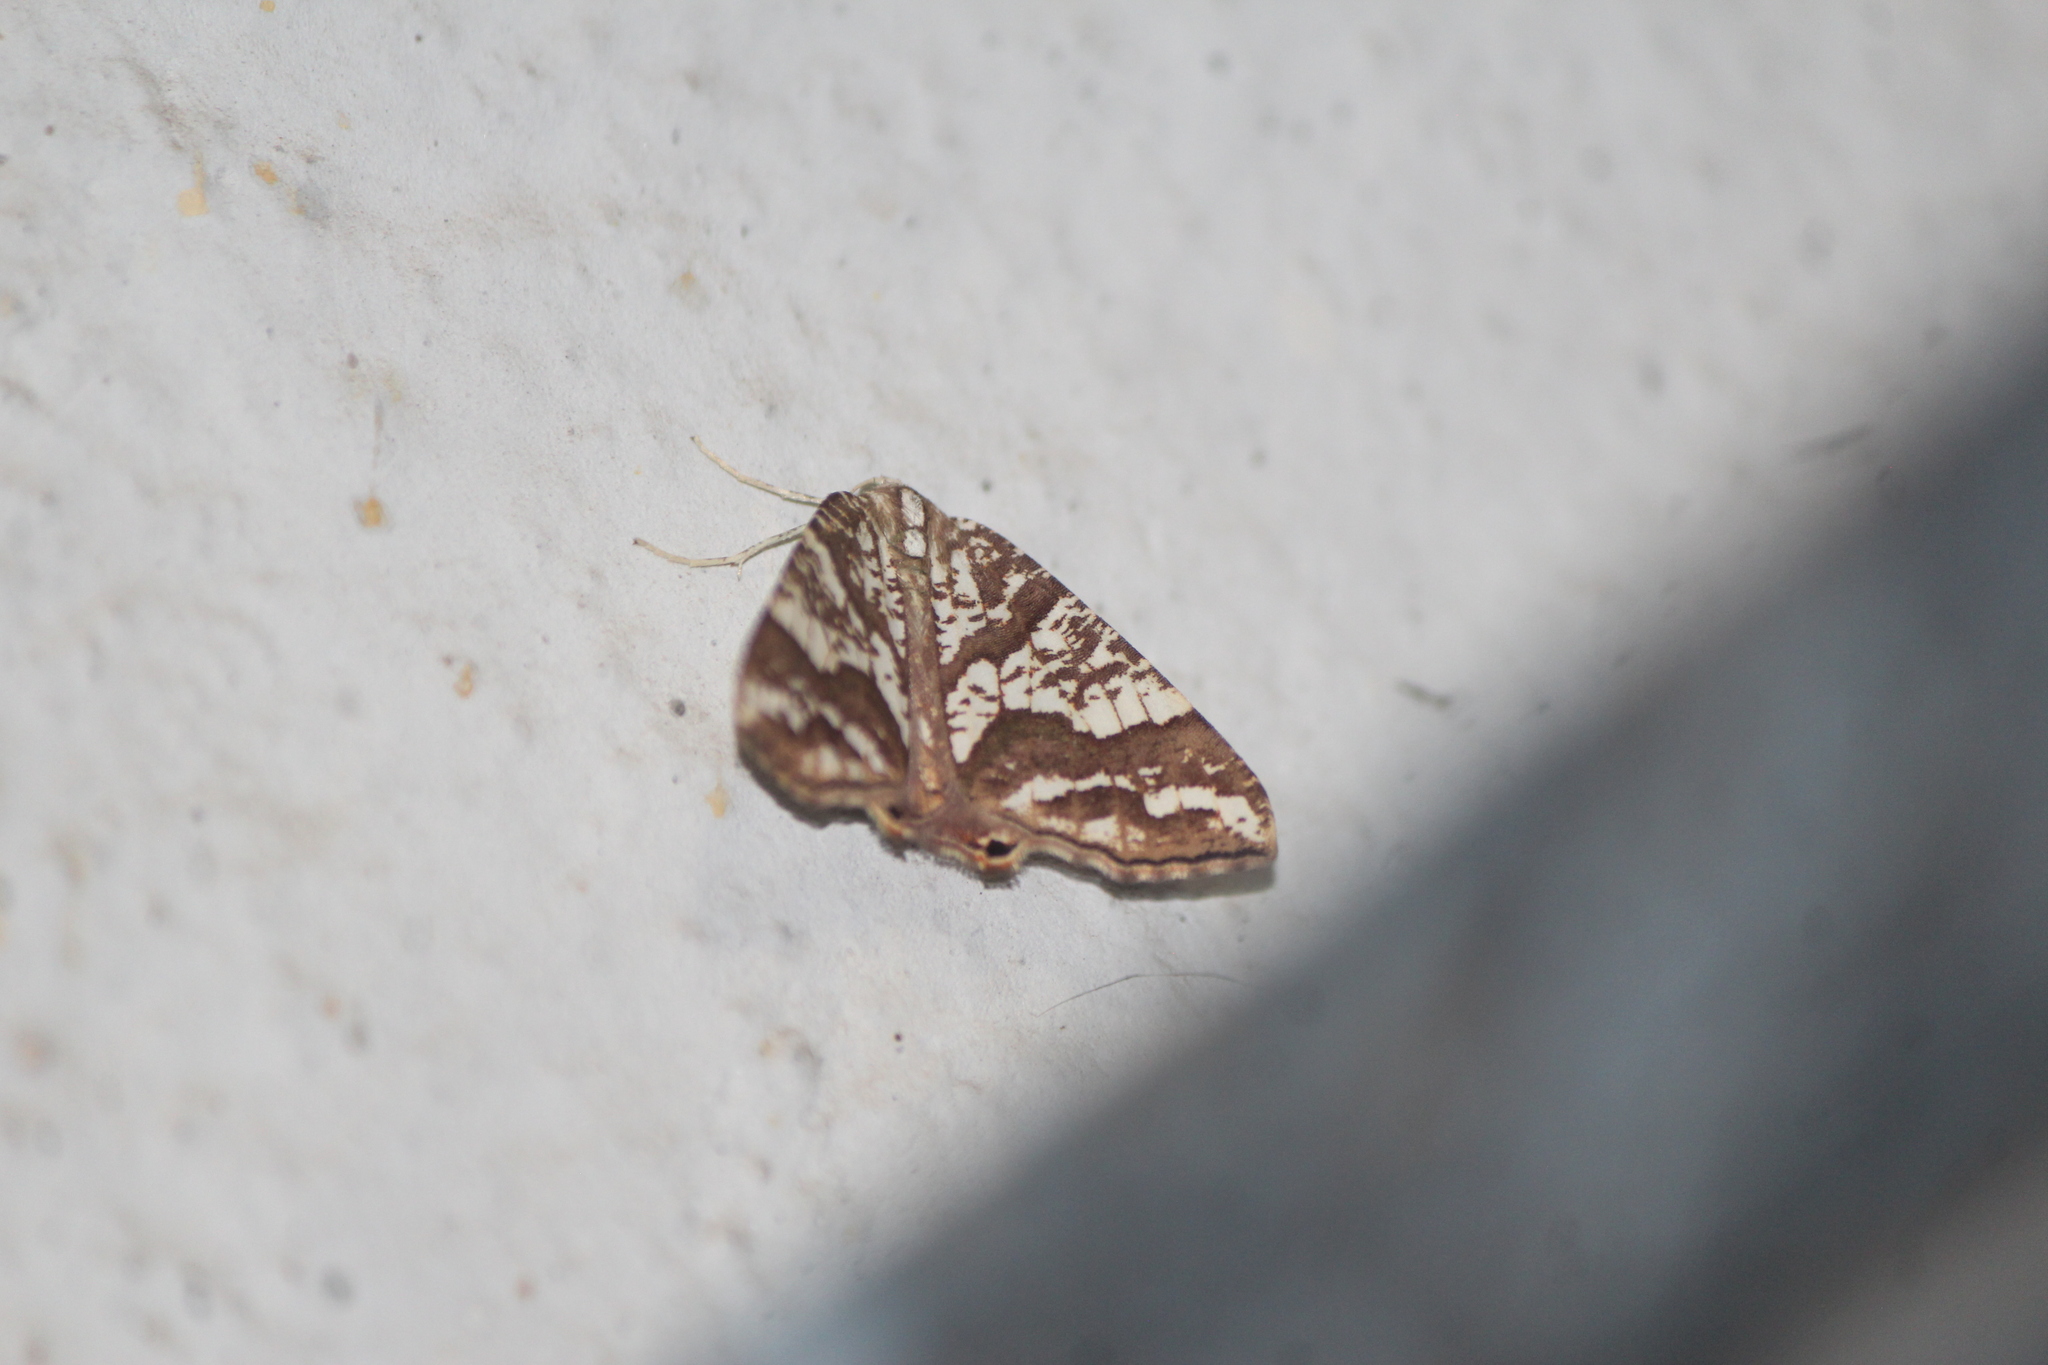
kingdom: Animalia
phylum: Arthropoda
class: Insecta
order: Lepidoptera
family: Geometridae
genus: Rindgeria
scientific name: Rindgeria ornata
